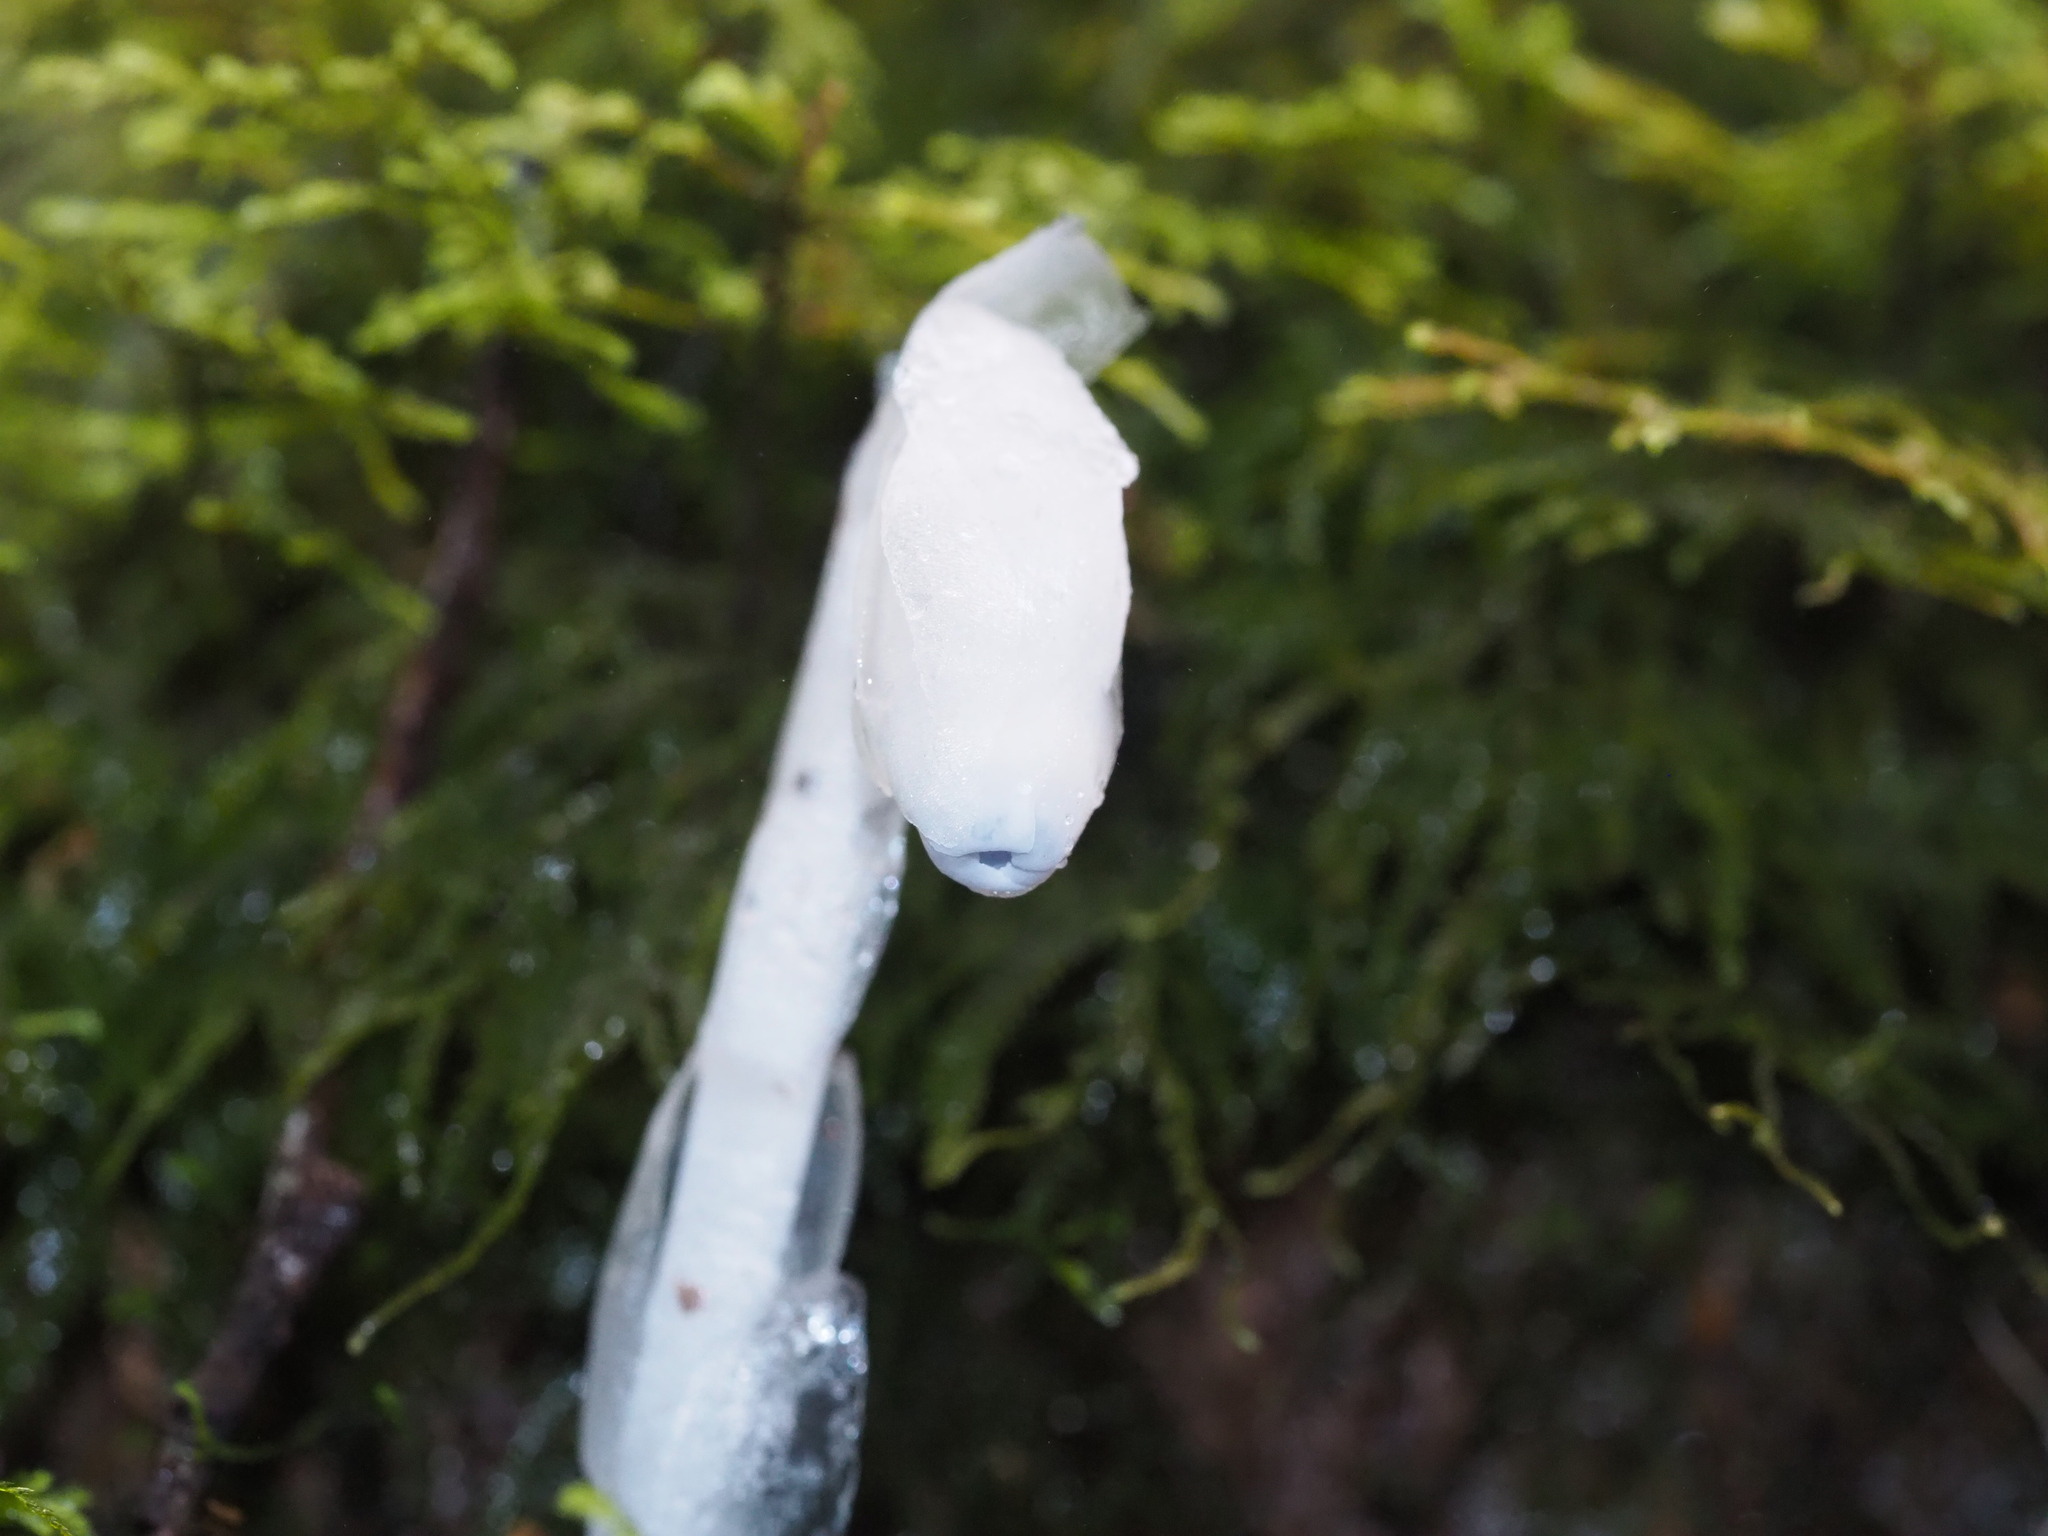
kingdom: Plantae
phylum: Tracheophyta
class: Magnoliopsida
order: Ericales
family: Ericaceae
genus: Monotropastrum
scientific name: Monotropastrum humile
